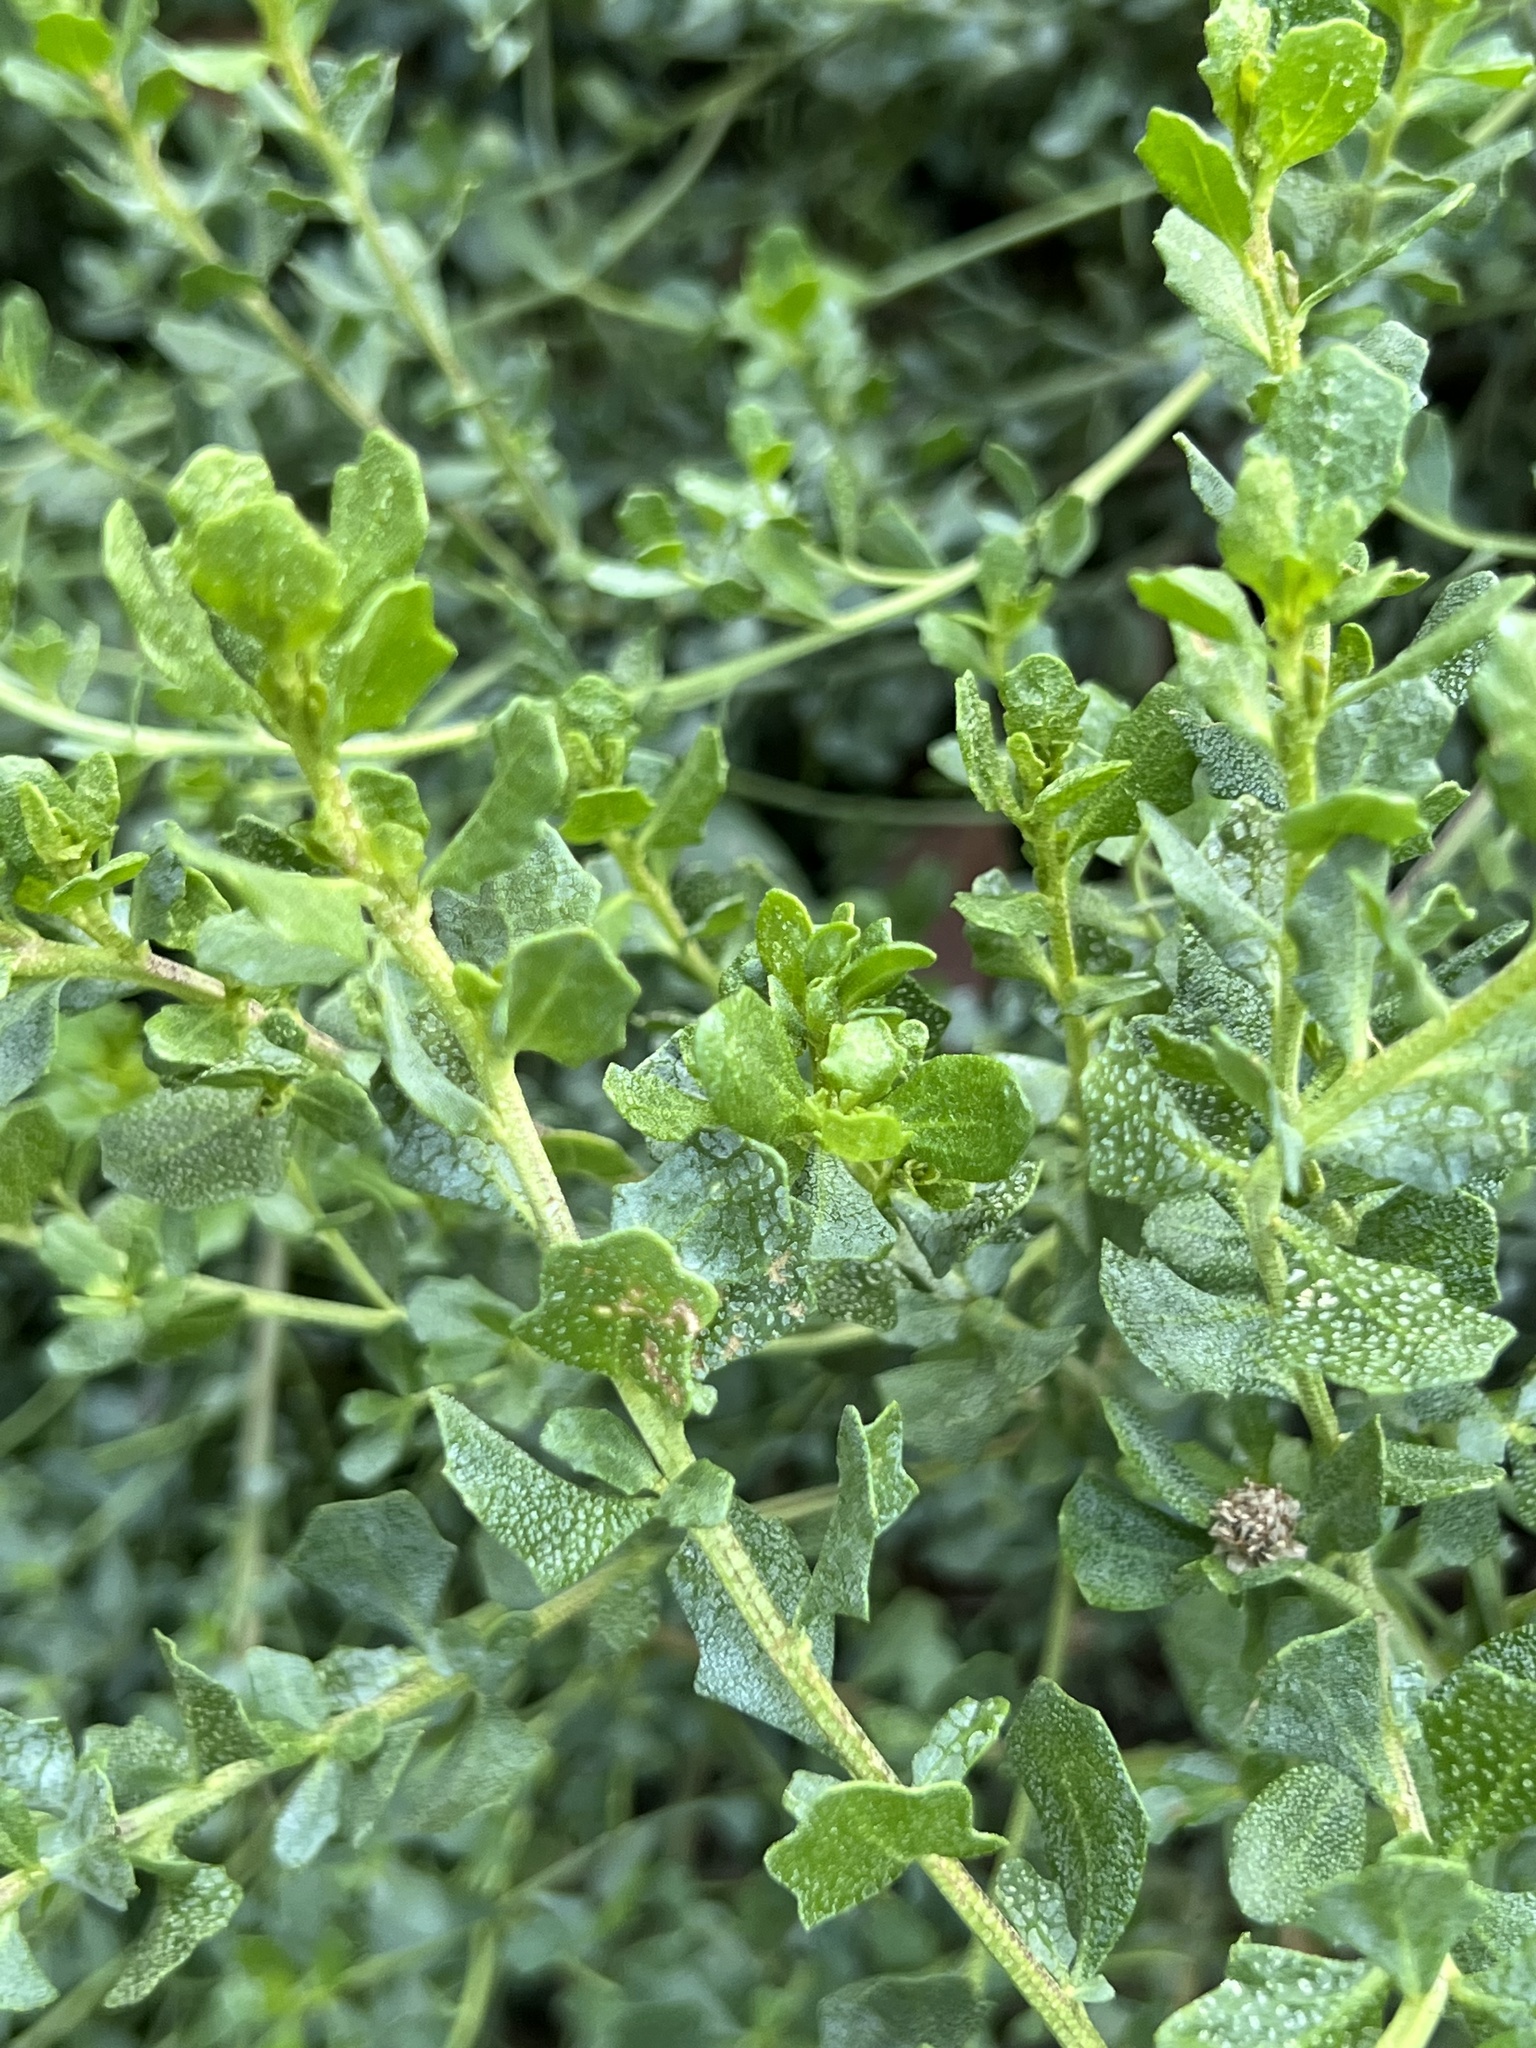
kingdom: Plantae
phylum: Tracheophyta
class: Magnoliopsida
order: Asterales
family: Asteraceae
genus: Baccharis
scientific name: Baccharis pilularis
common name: Coyotebrush
